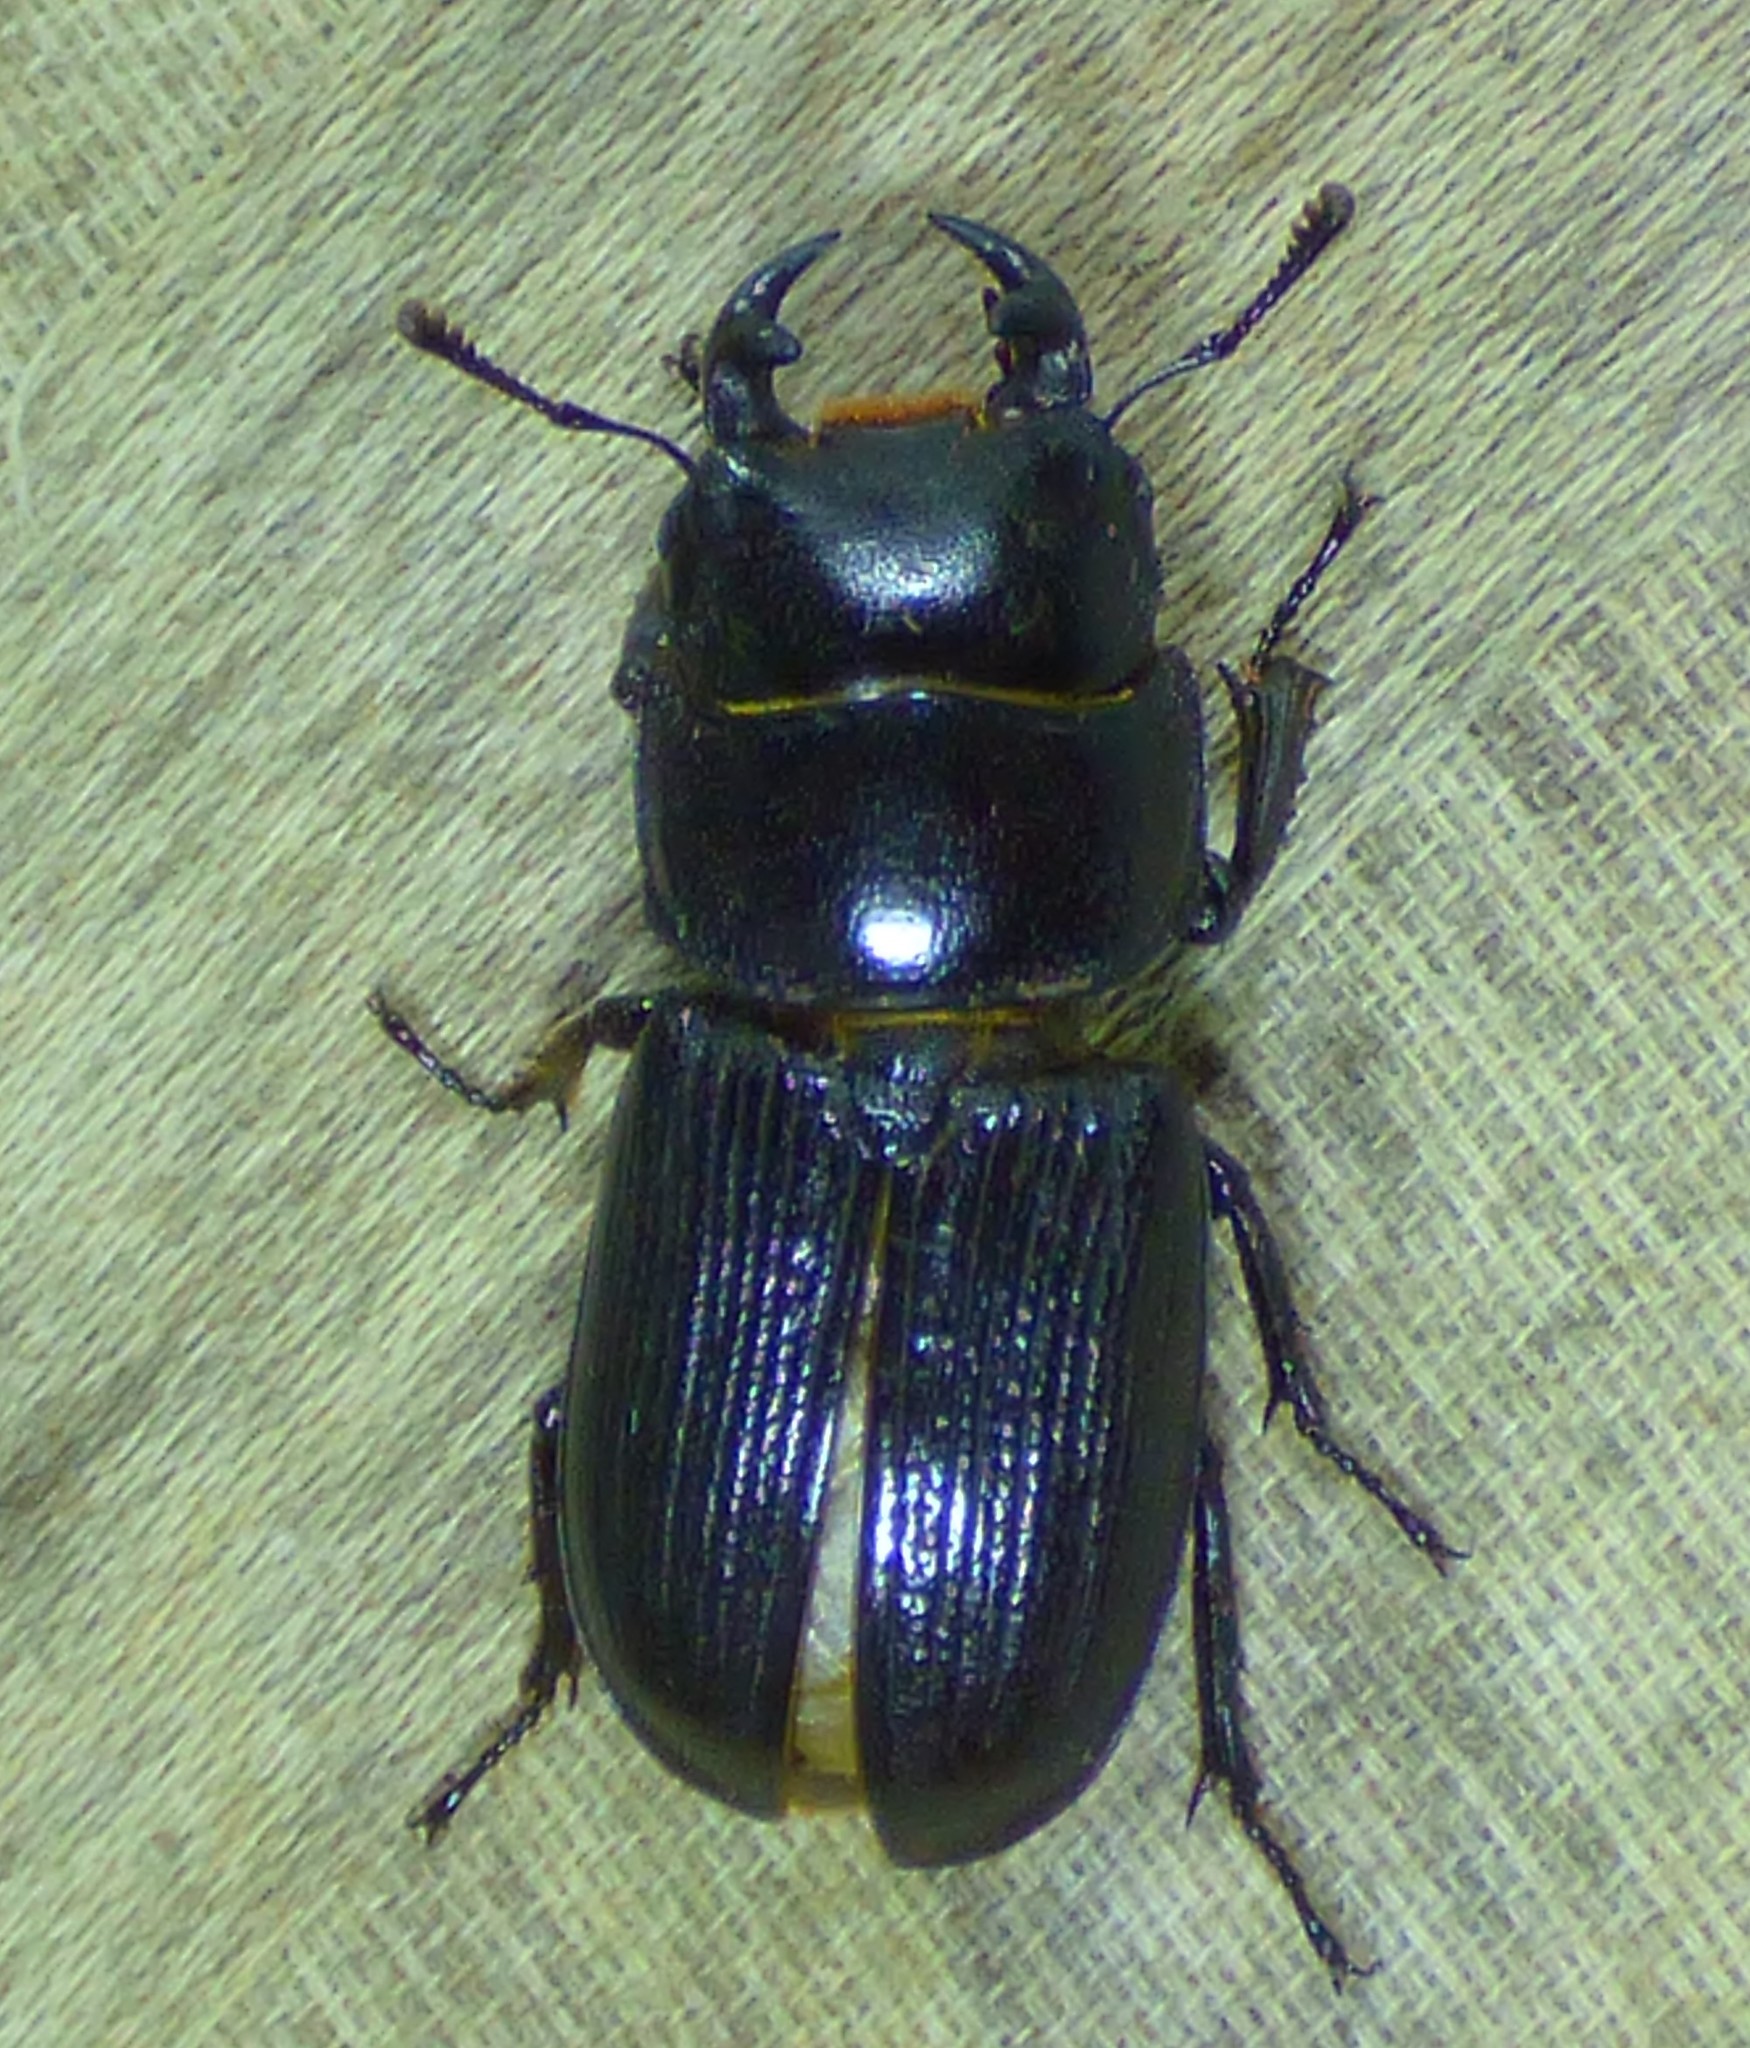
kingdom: Animalia
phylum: Arthropoda
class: Insecta
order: Coleoptera
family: Lucanidae
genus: Dorcus
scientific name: Dorcus parallelus
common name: Antelope beetle
